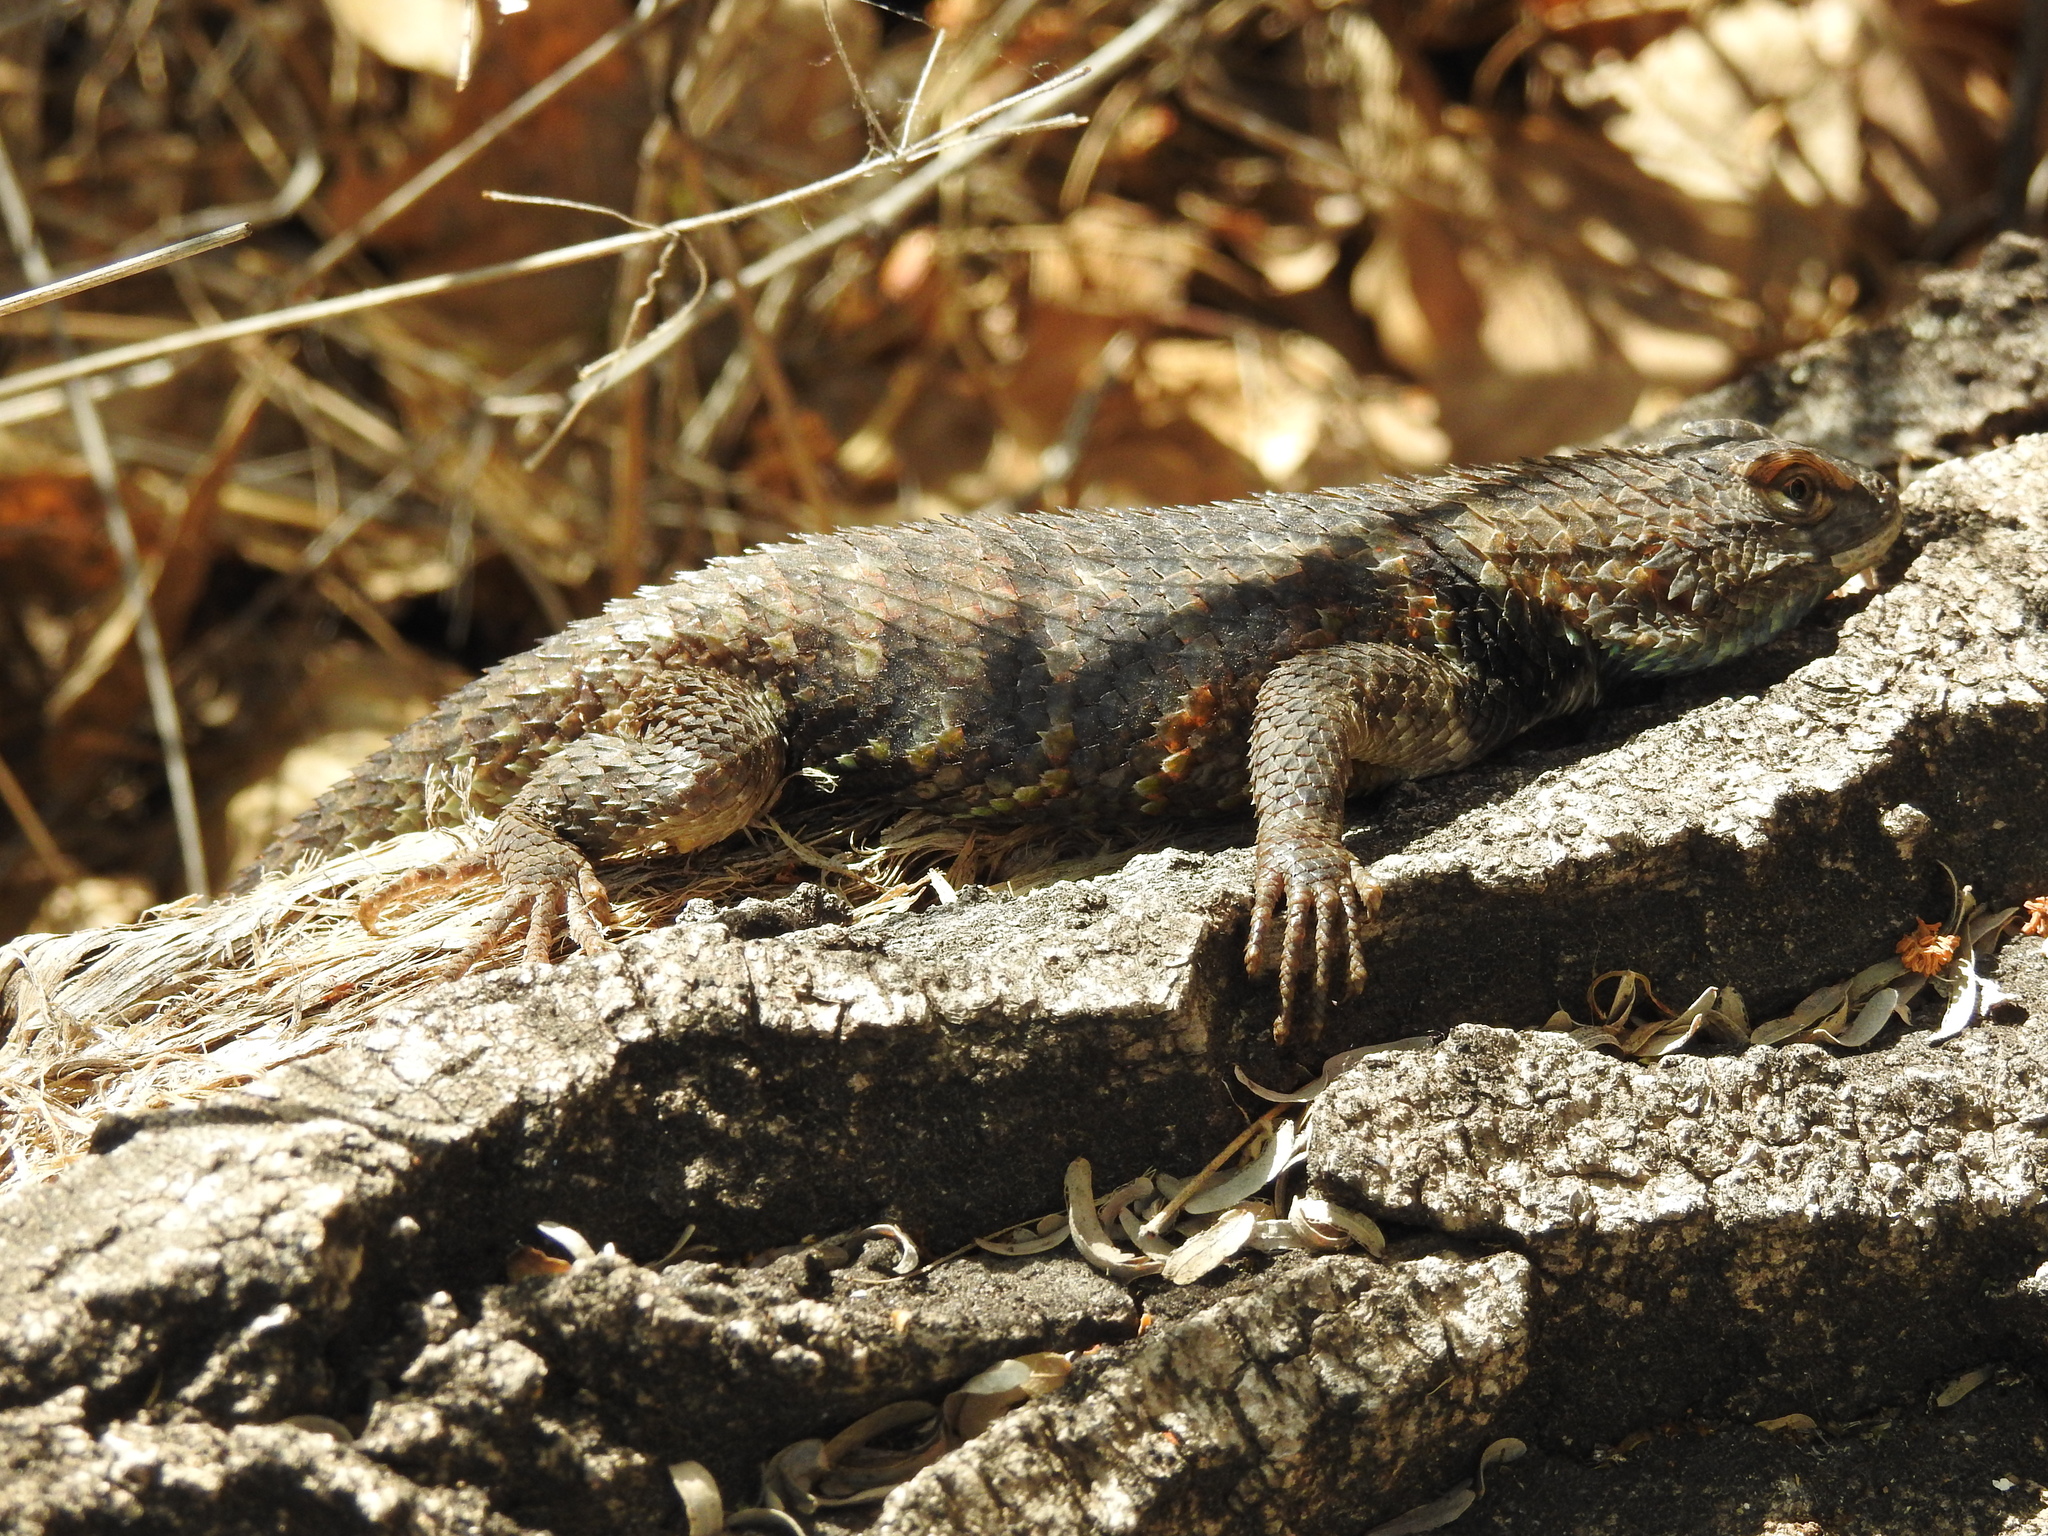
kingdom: Animalia
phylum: Chordata
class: Squamata
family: Phrynosomatidae
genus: Sceloporus
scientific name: Sceloporus magister
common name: Desert spiny lizard
